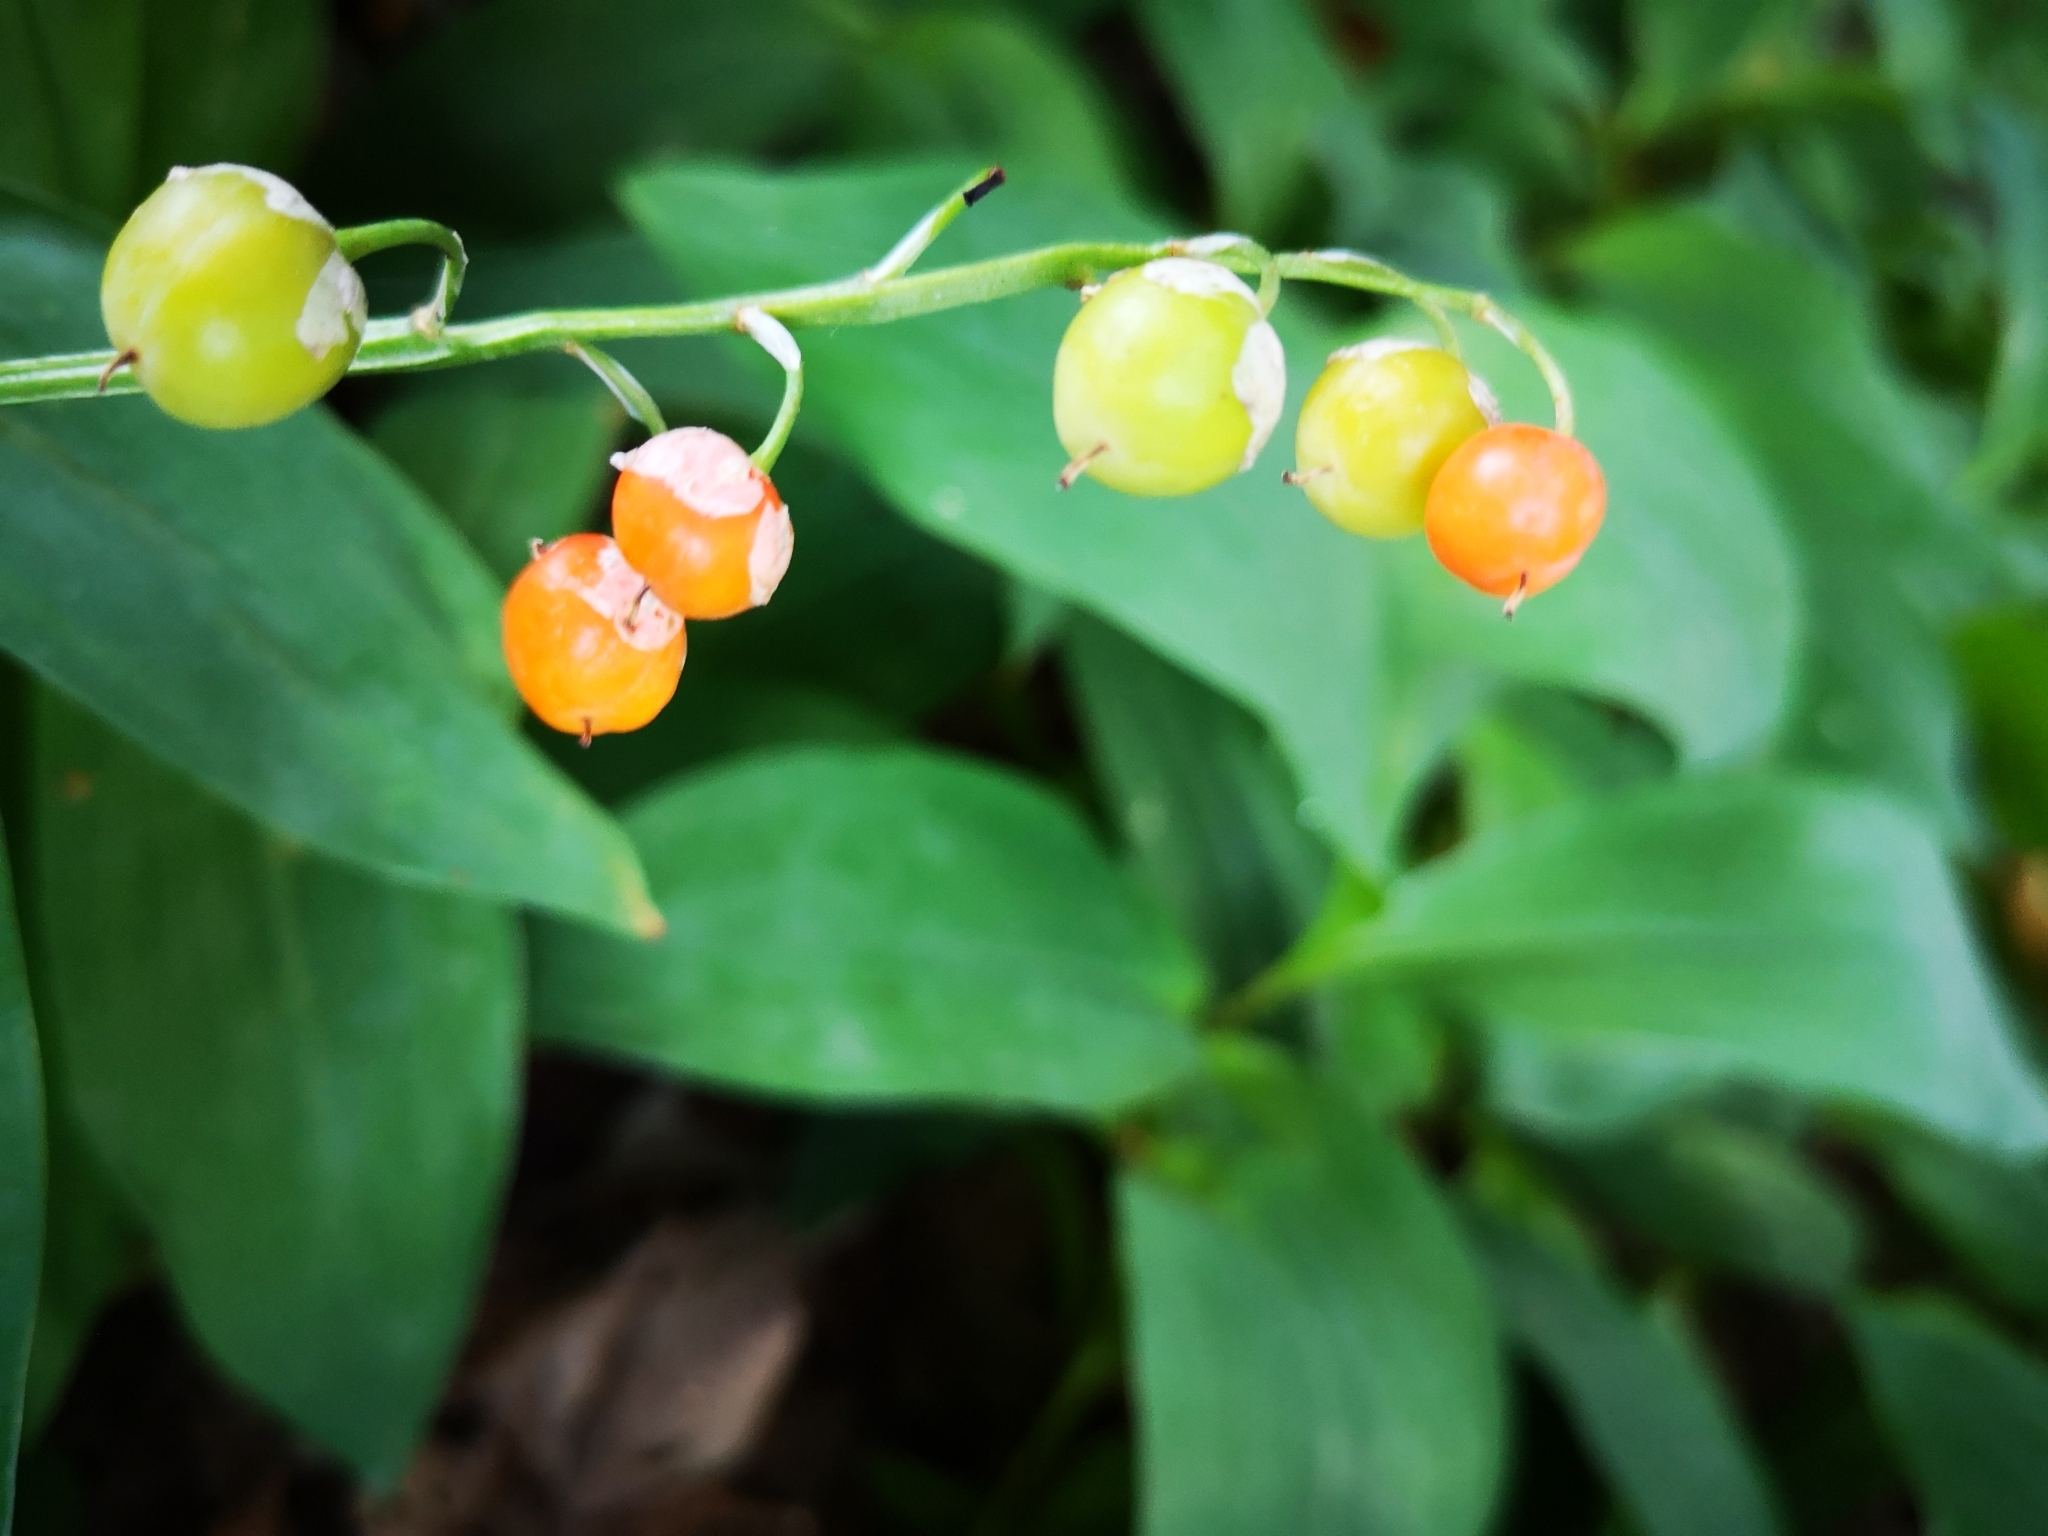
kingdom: Plantae
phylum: Tracheophyta
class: Liliopsida
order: Asparagales
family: Asparagaceae
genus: Convallaria
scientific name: Convallaria majalis
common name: Lily-of-the-valley
